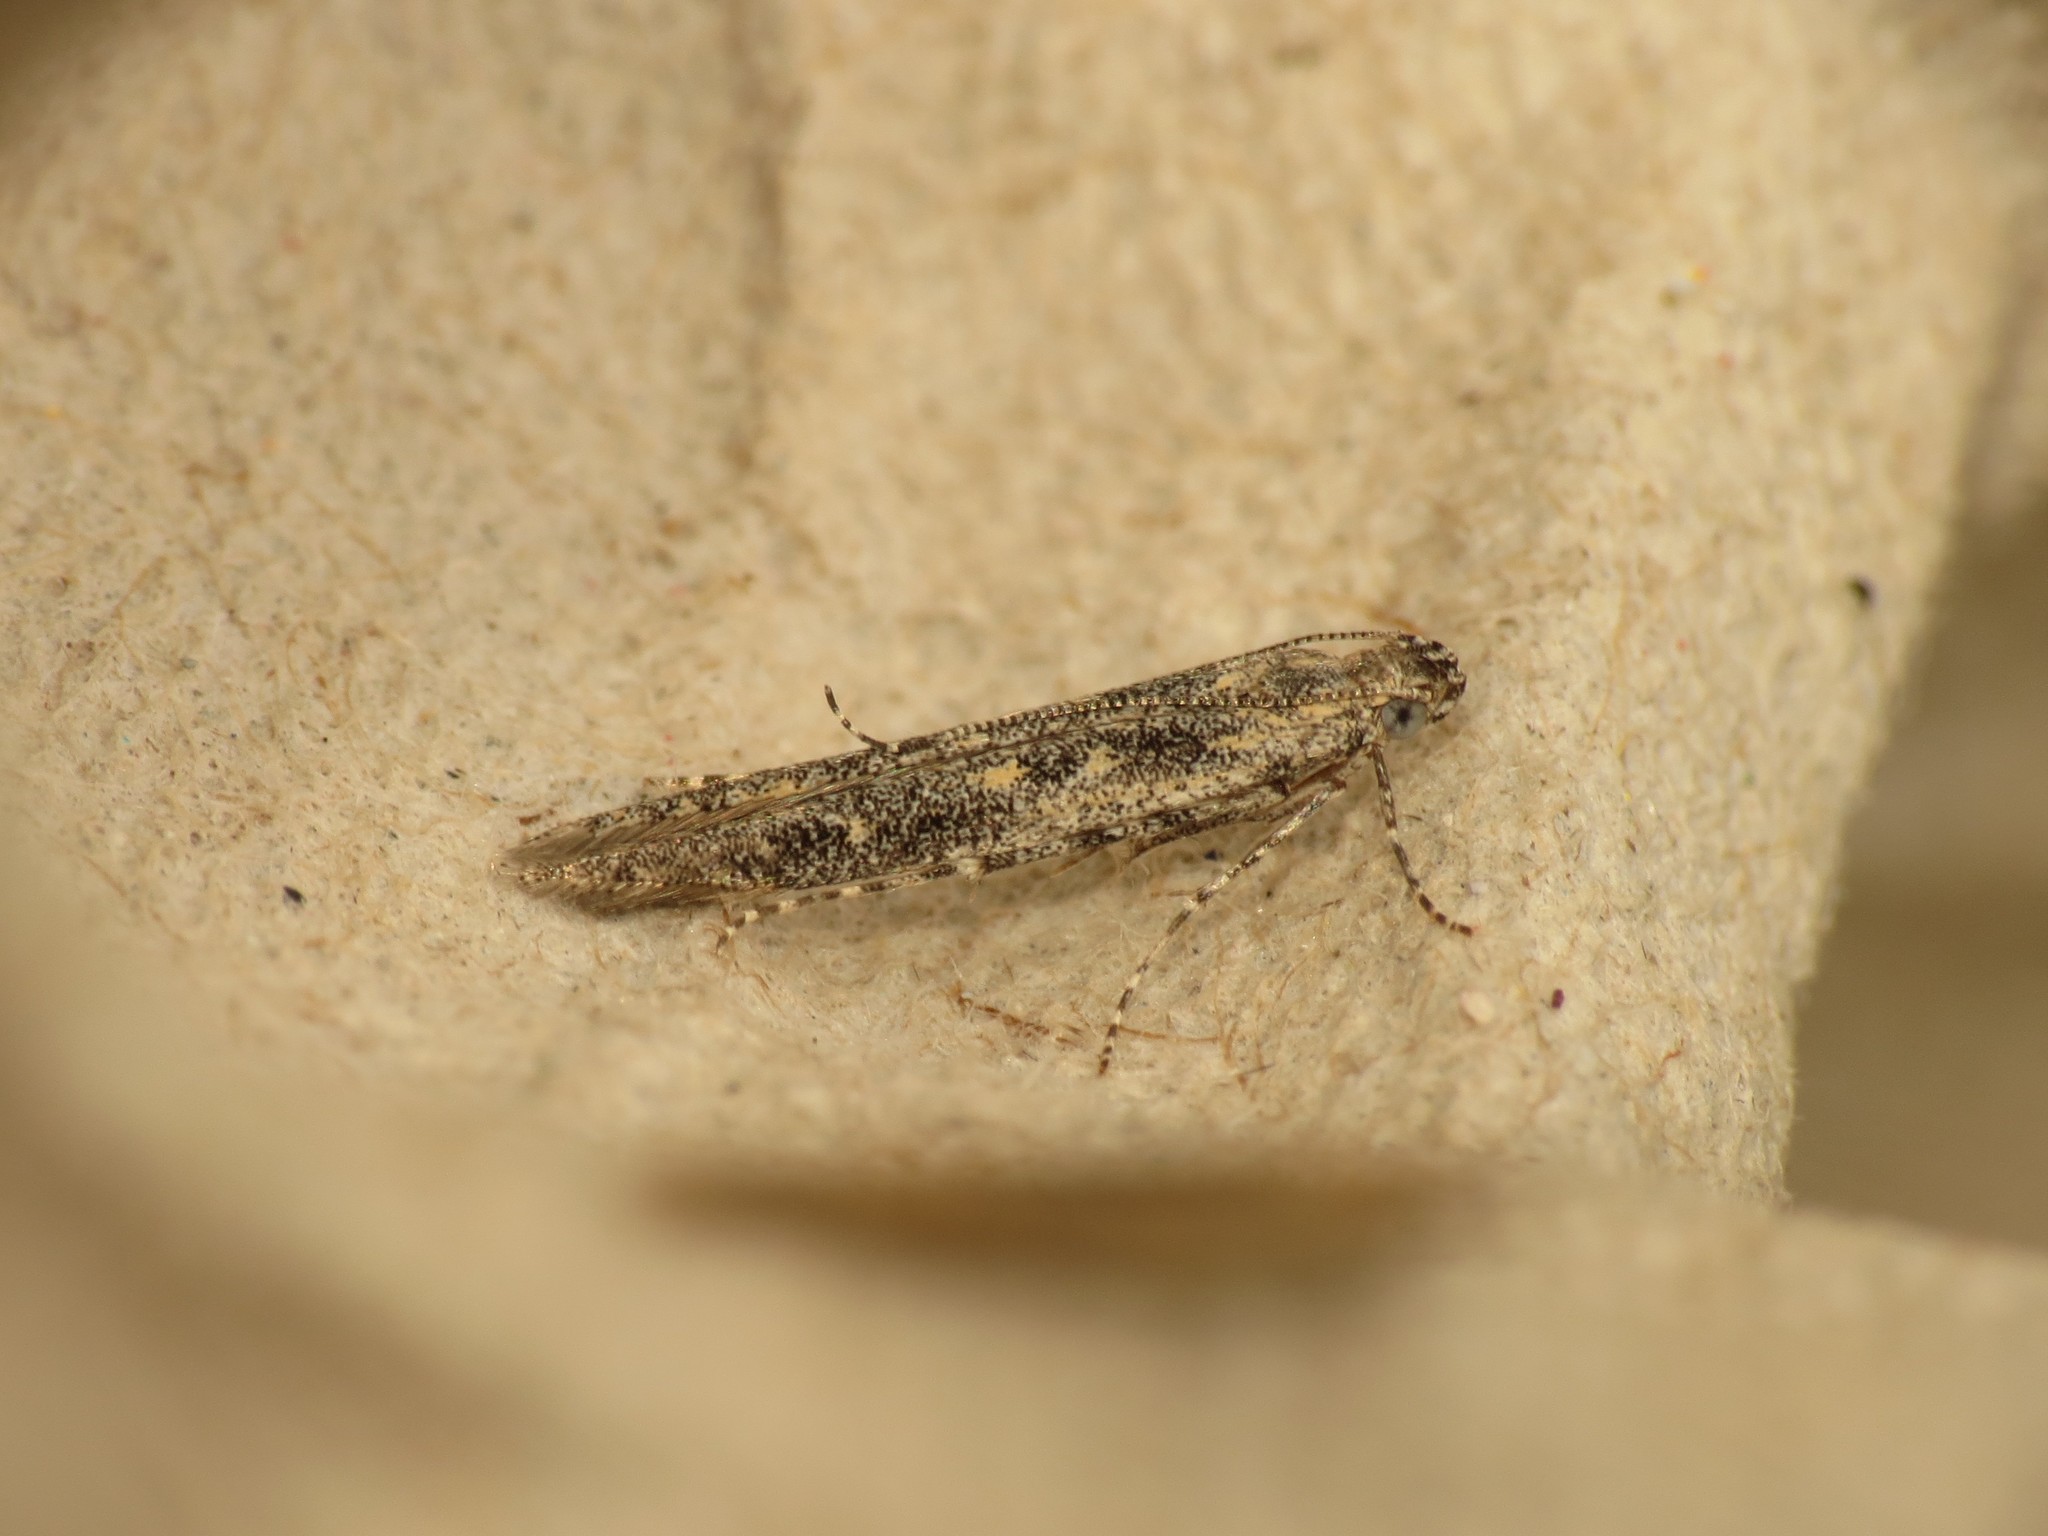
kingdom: Animalia
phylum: Arthropoda
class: Insecta
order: Lepidoptera
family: Batrachedridae
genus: Batrachedra
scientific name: Batrachedra praeangusta
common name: Poplar cosmet
